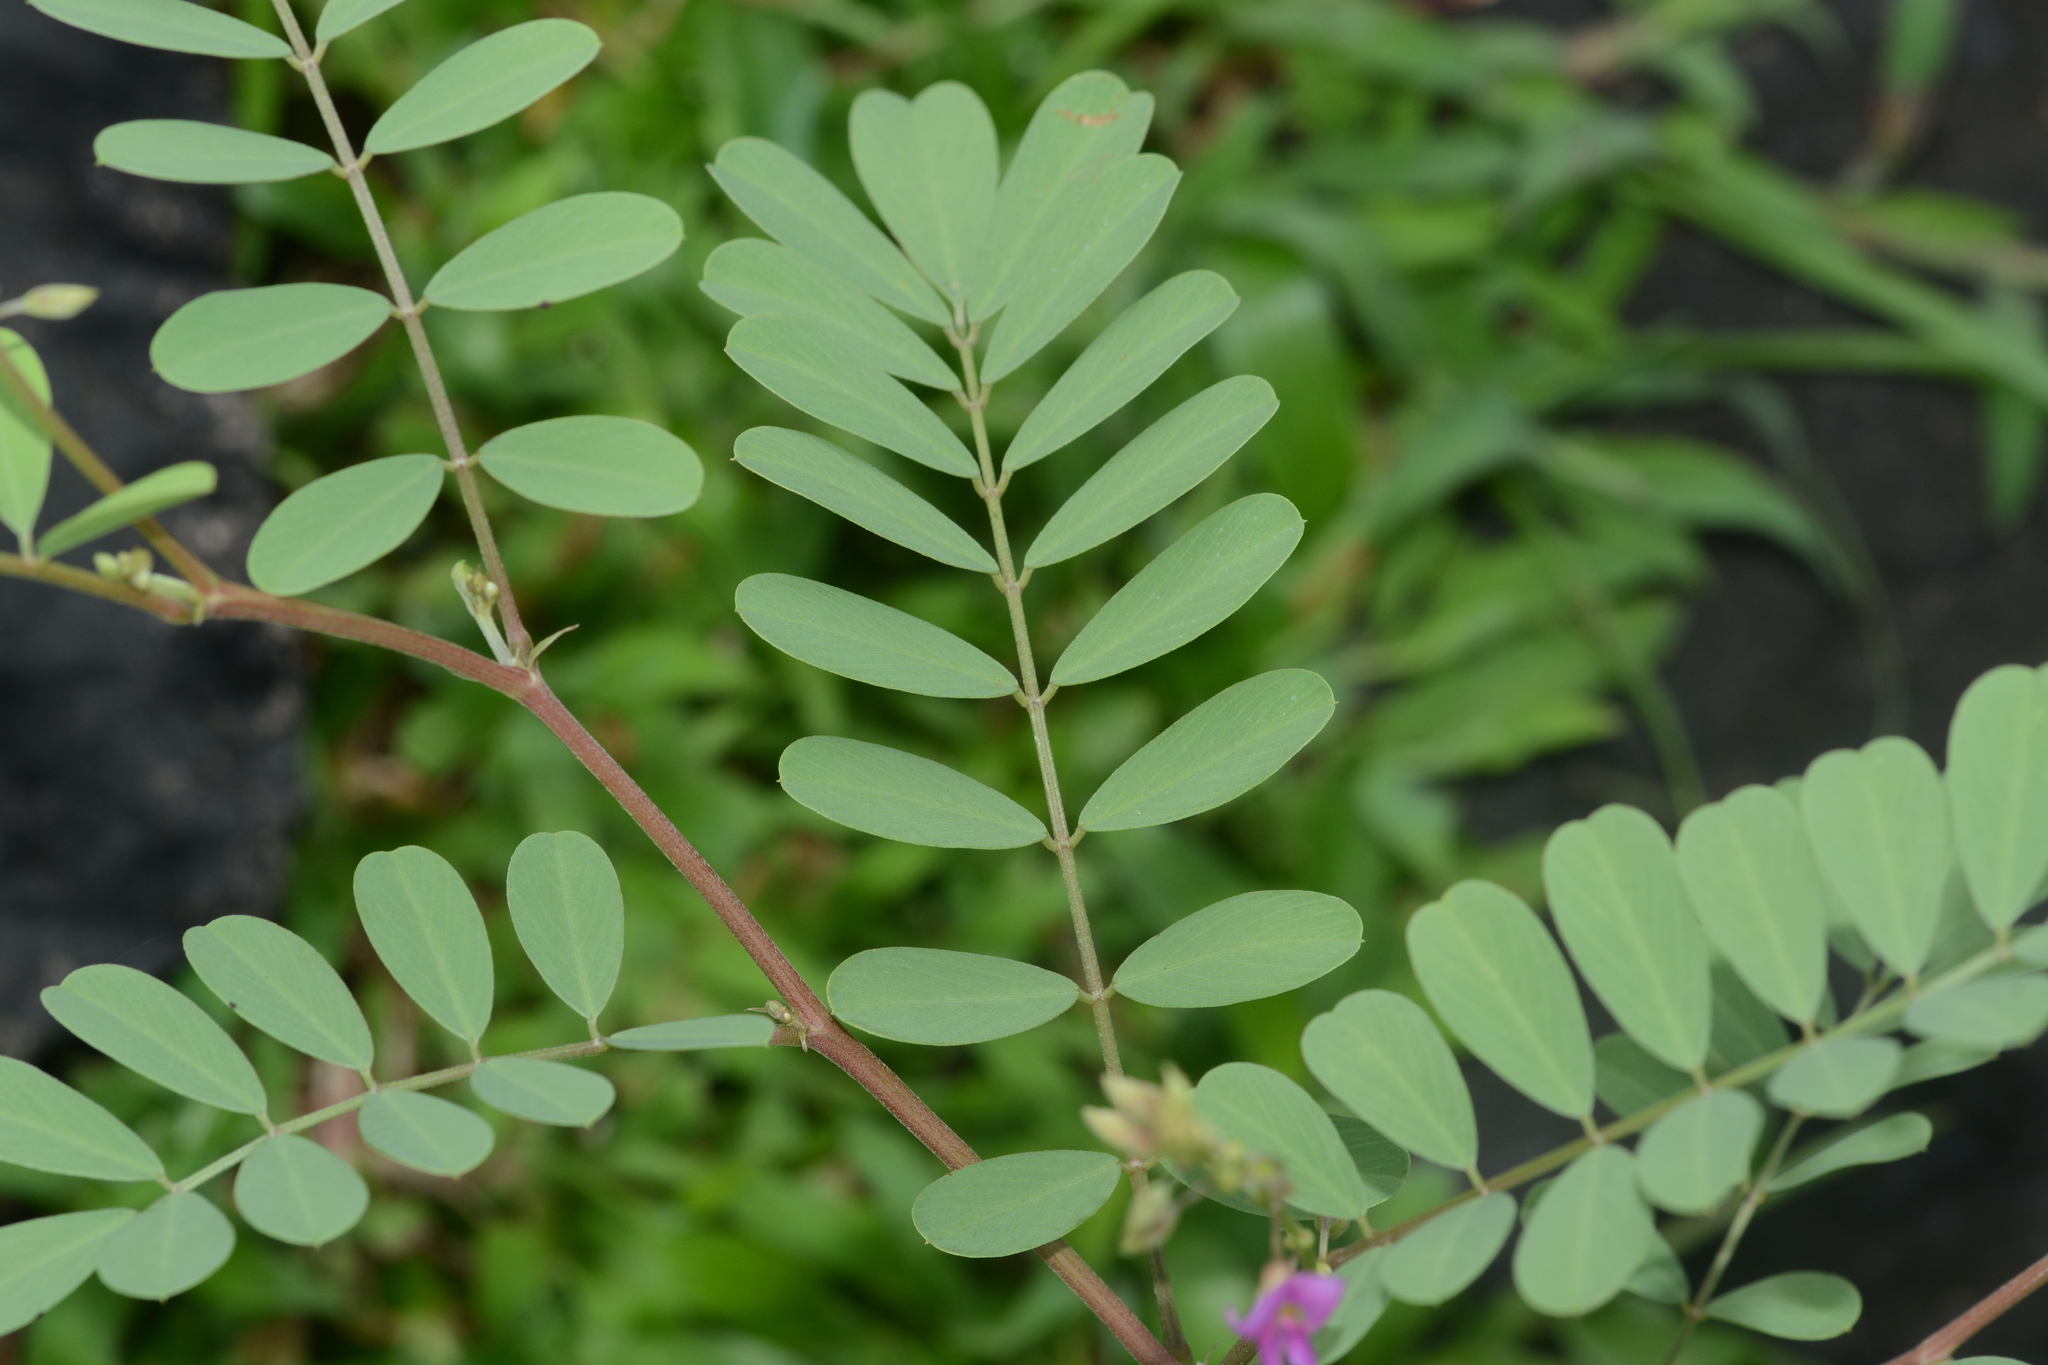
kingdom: Plantae
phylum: Tracheophyta
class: Magnoliopsida
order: Fabales
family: Fabaceae
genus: Tephrosia
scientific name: Tephrosia purpurea
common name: Fishpoison
